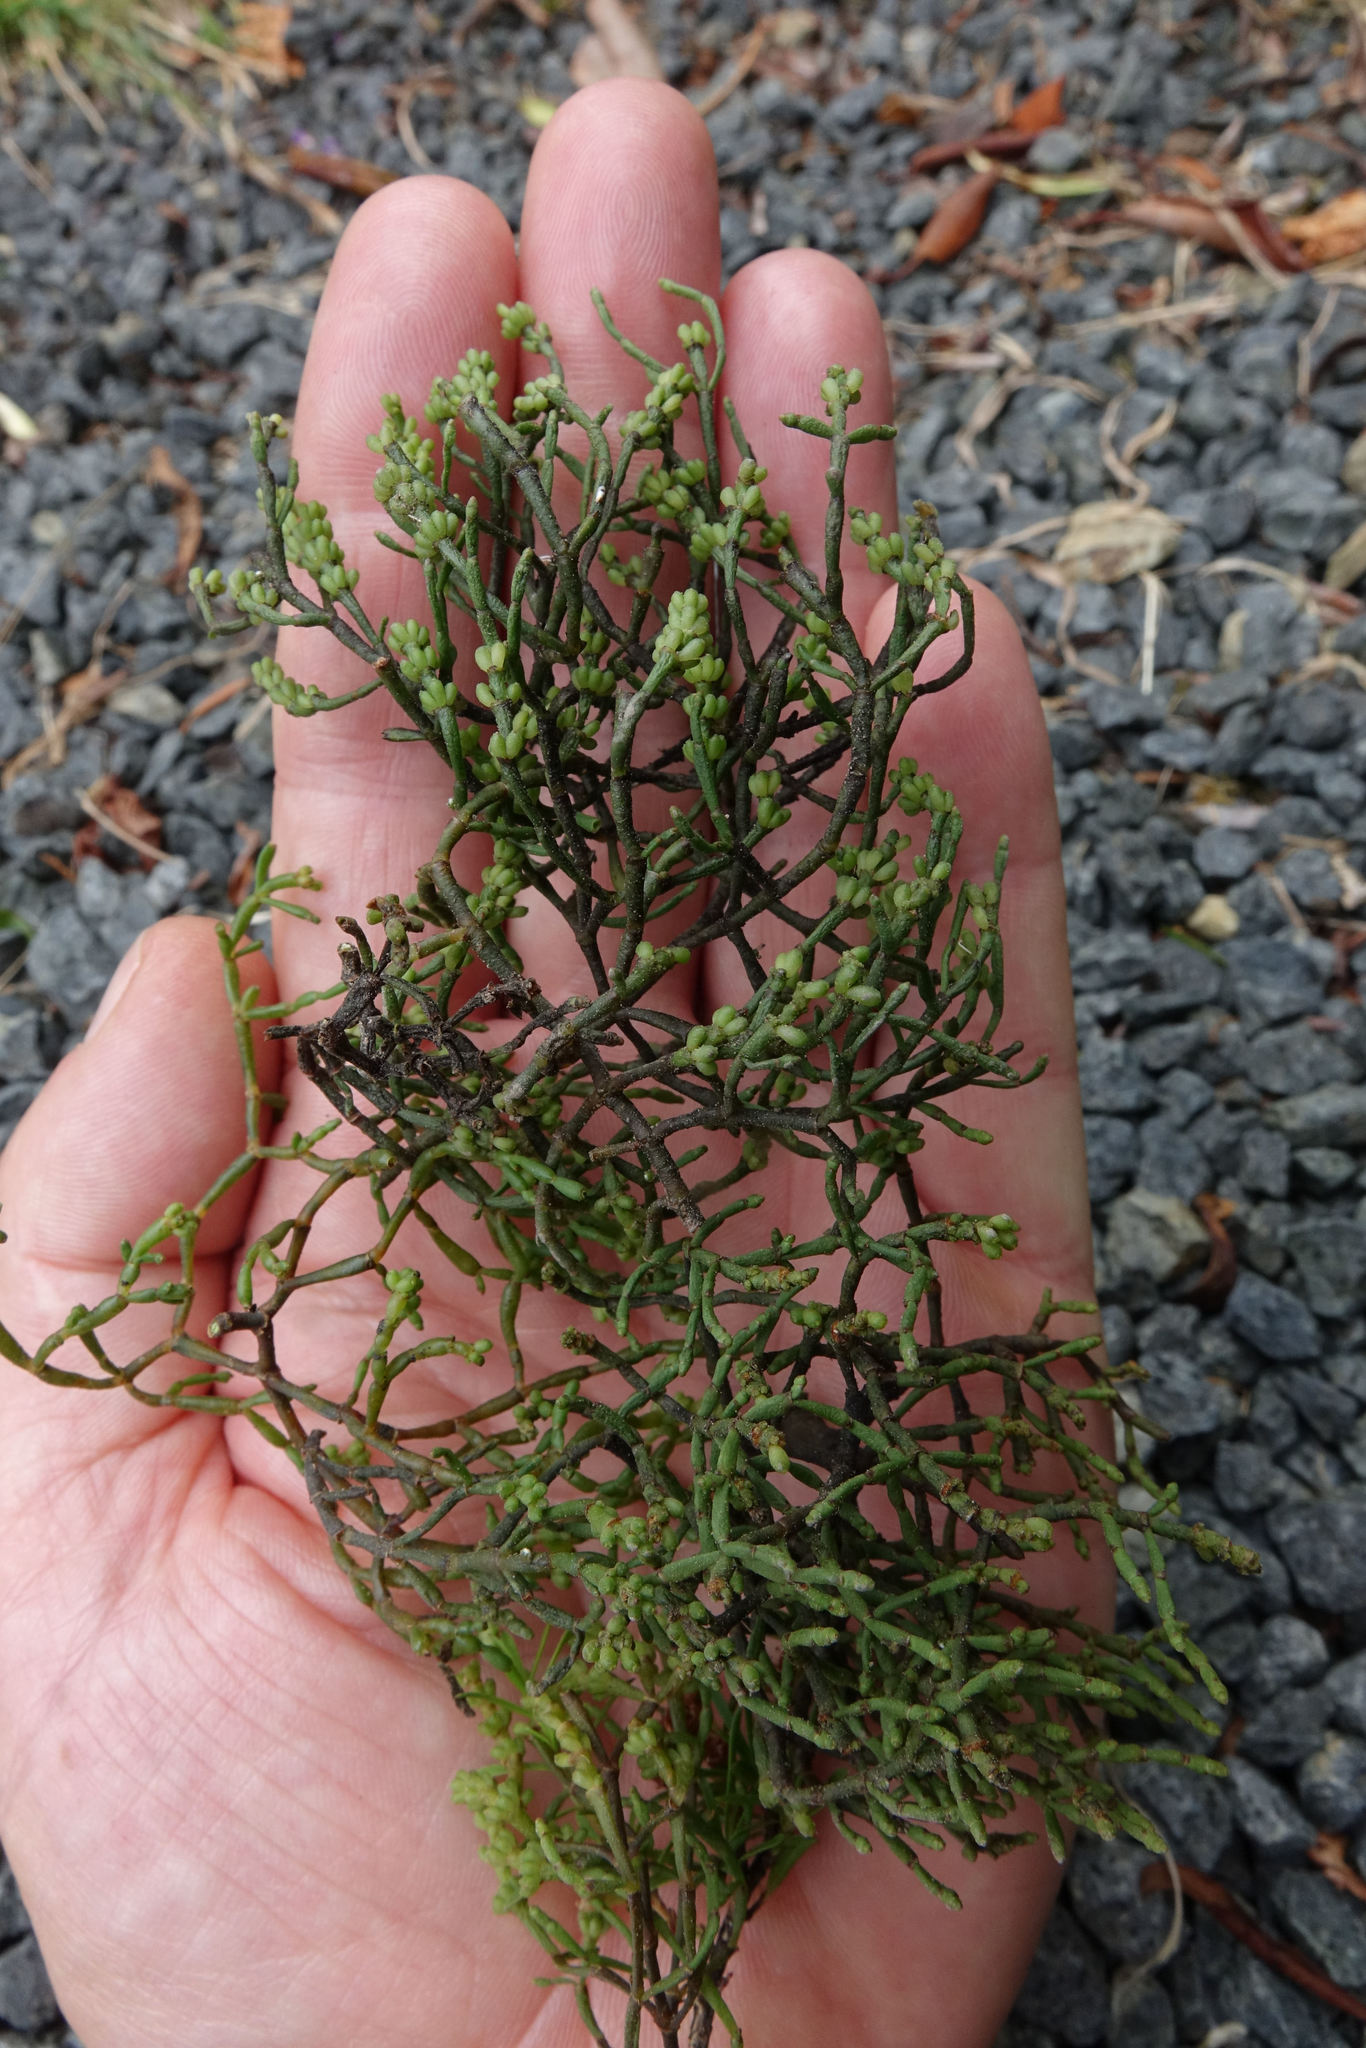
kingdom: Plantae
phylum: Tracheophyta
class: Magnoliopsida
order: Santalales
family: Viscaceae
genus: Korthalsella
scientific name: Korthalsella salicornioides
